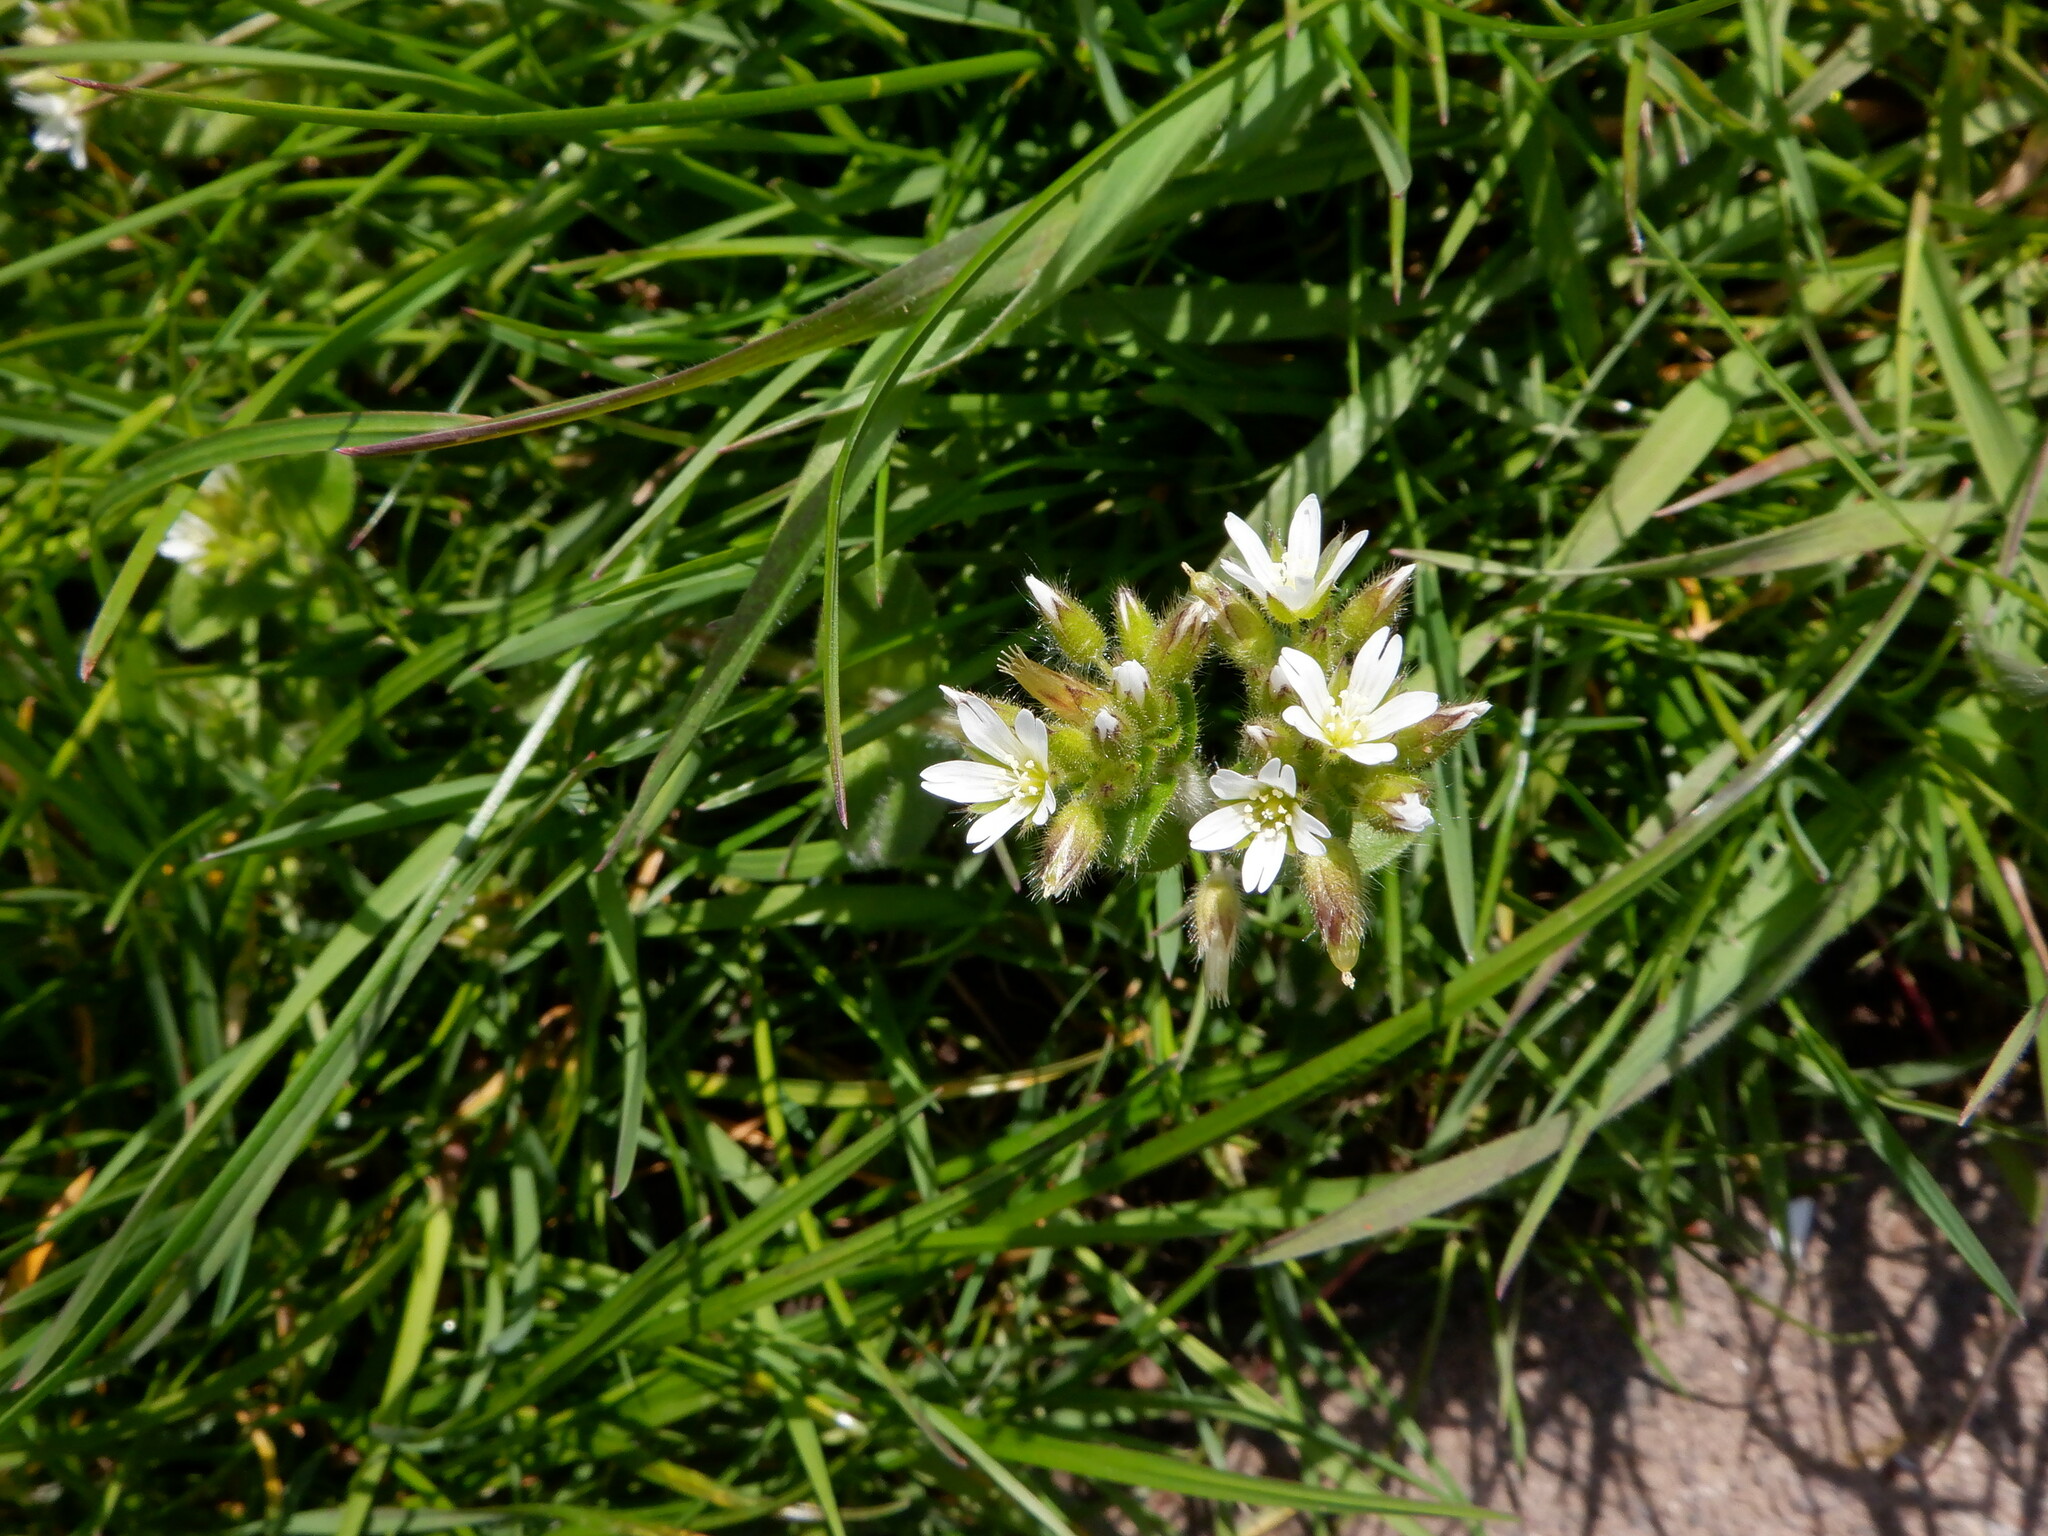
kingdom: Plantae
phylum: Tracheophyta
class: Magnoliopsida
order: Caryophyllales
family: Caryophyllaceae
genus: Cerastium
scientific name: Cerastium glomeratum
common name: Sticky chickweed
